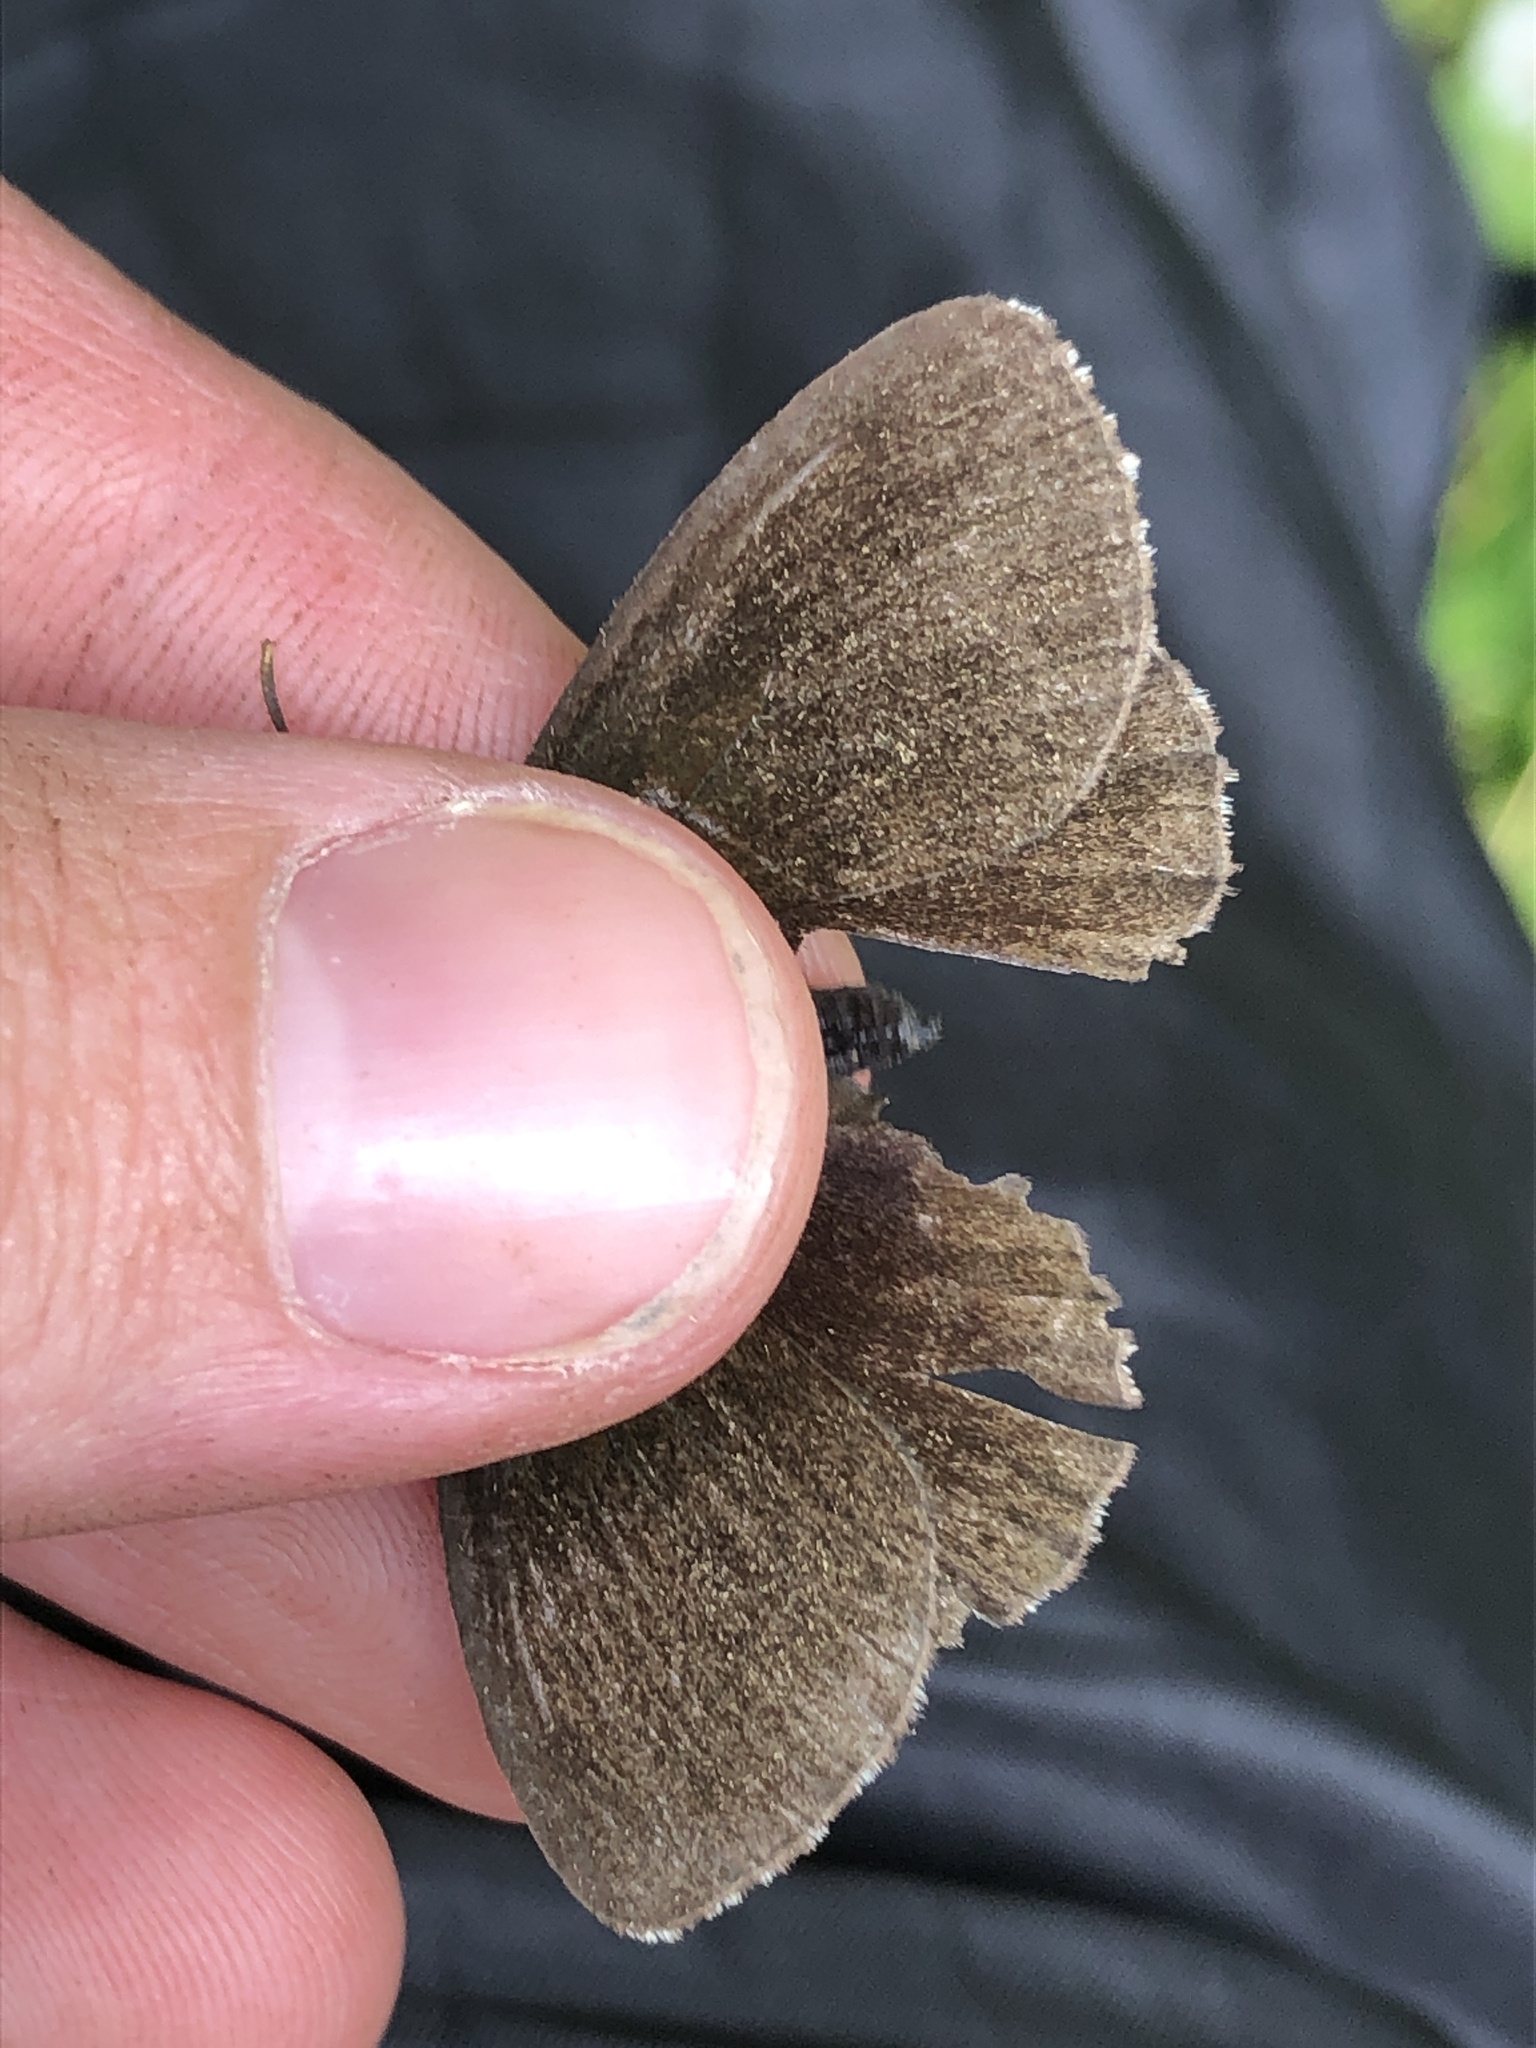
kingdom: Animalia
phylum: Arthropoda
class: Insecta
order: Lepidoptera
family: Nymphalidae
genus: Erebia
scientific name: Erebia euryale
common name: Large ringlet
